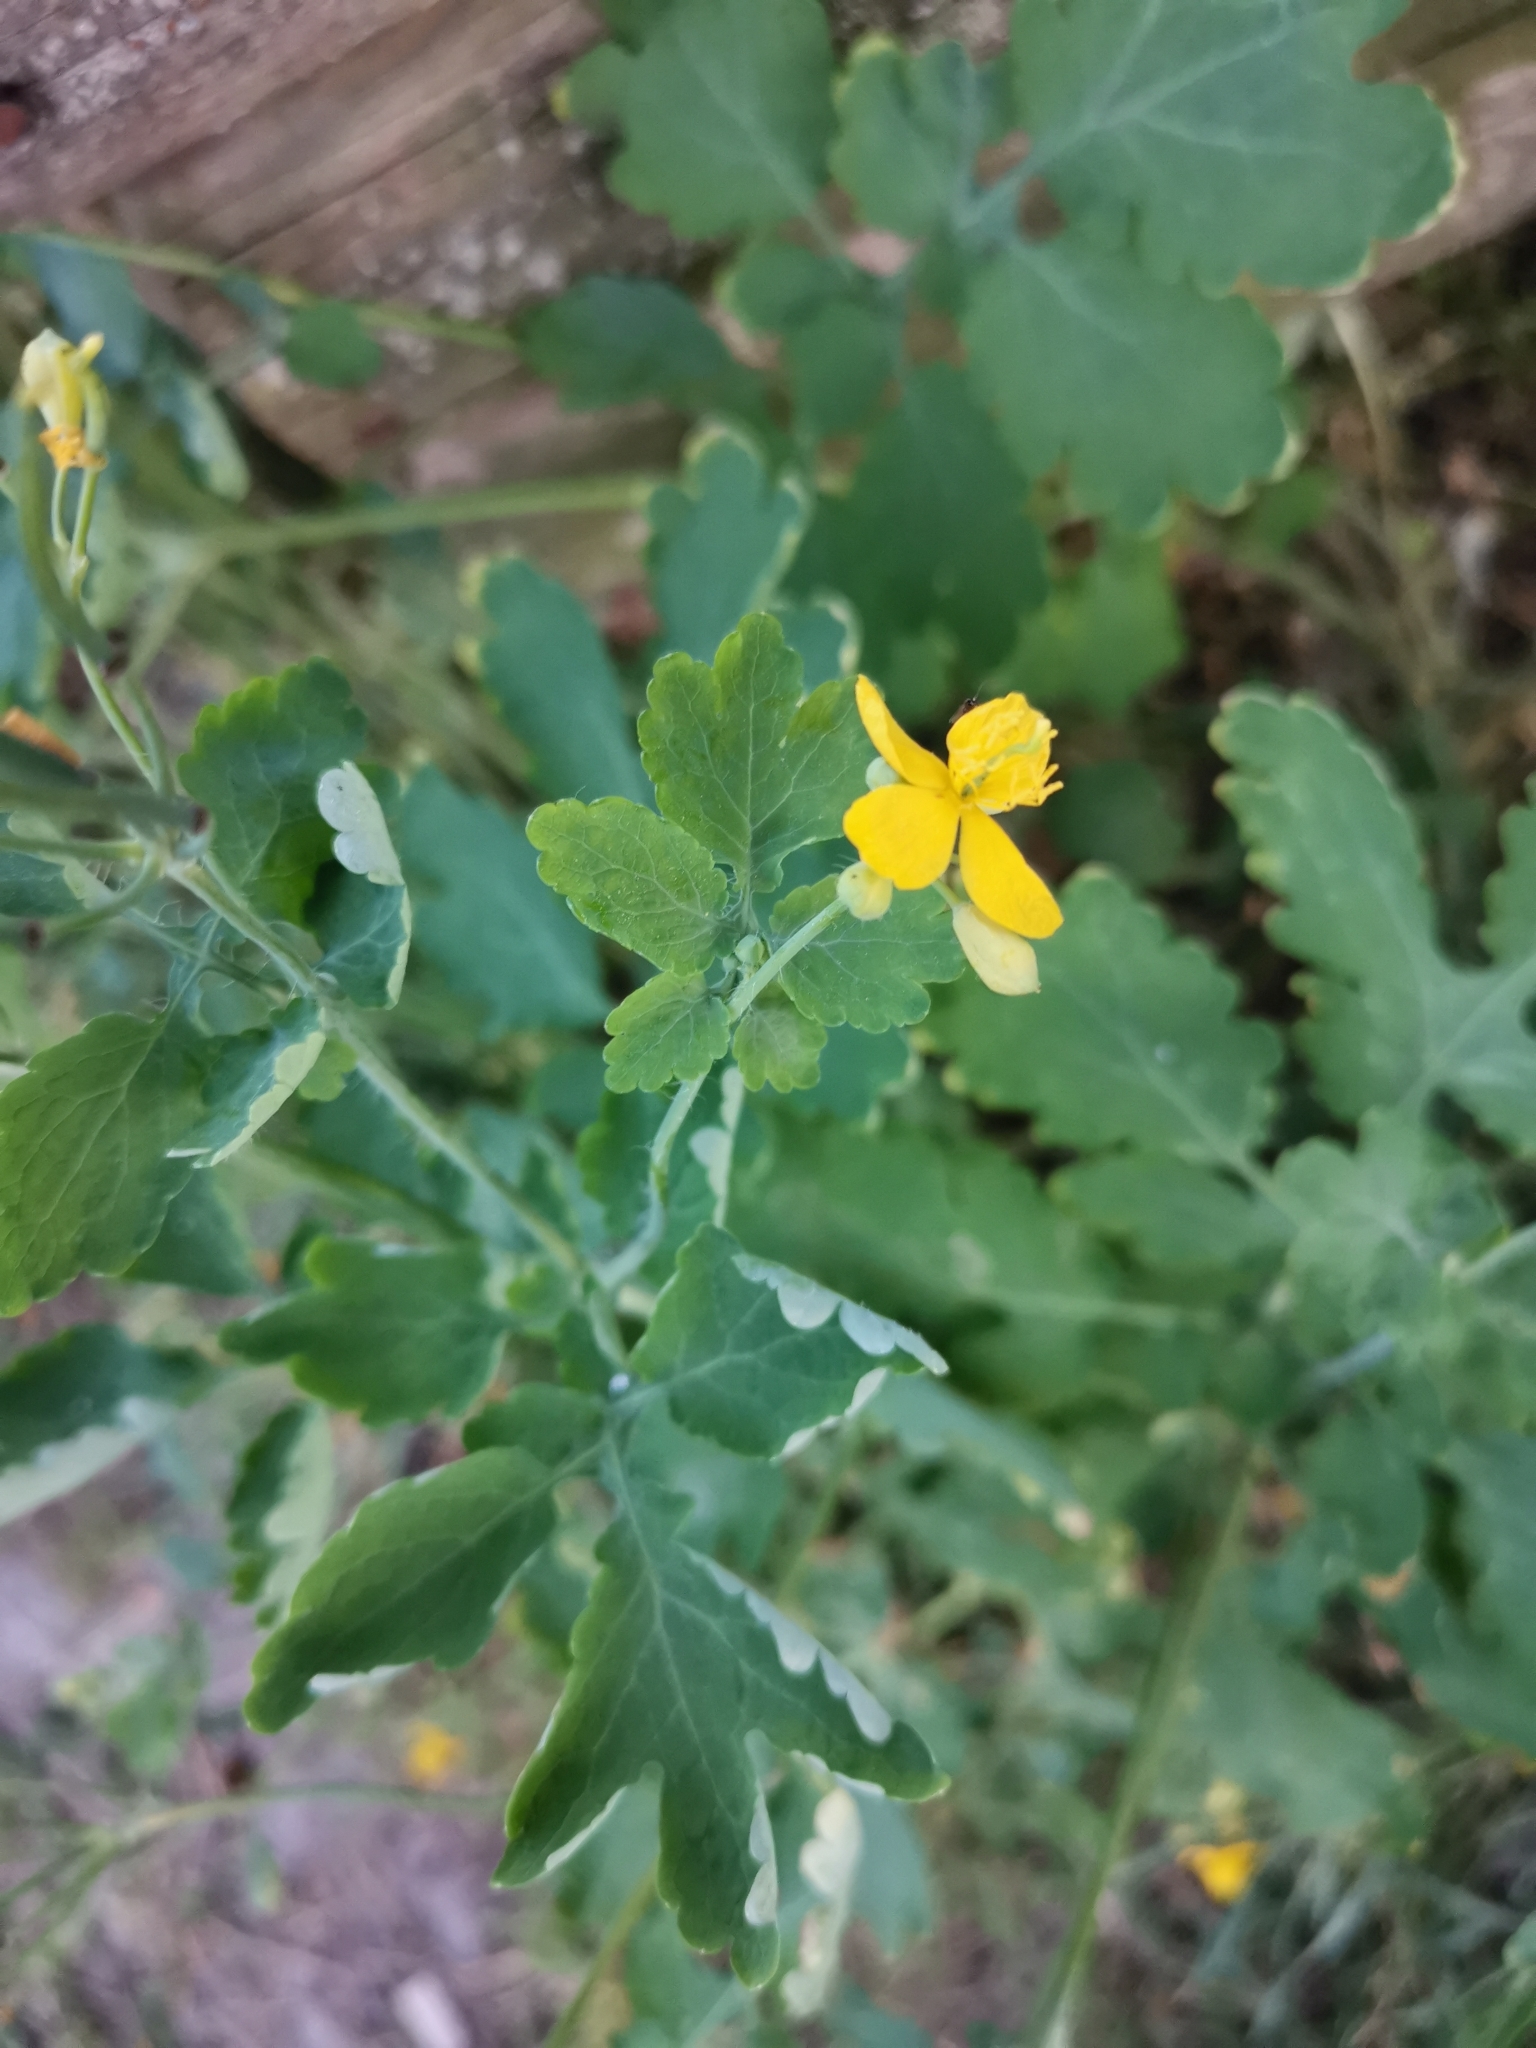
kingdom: Plantae
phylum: Tracheophyta
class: Magnoliopsida
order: Ranunculales
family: Papaveraceae
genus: Chelidonium
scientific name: Chelidonium majus
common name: Greater celandine
